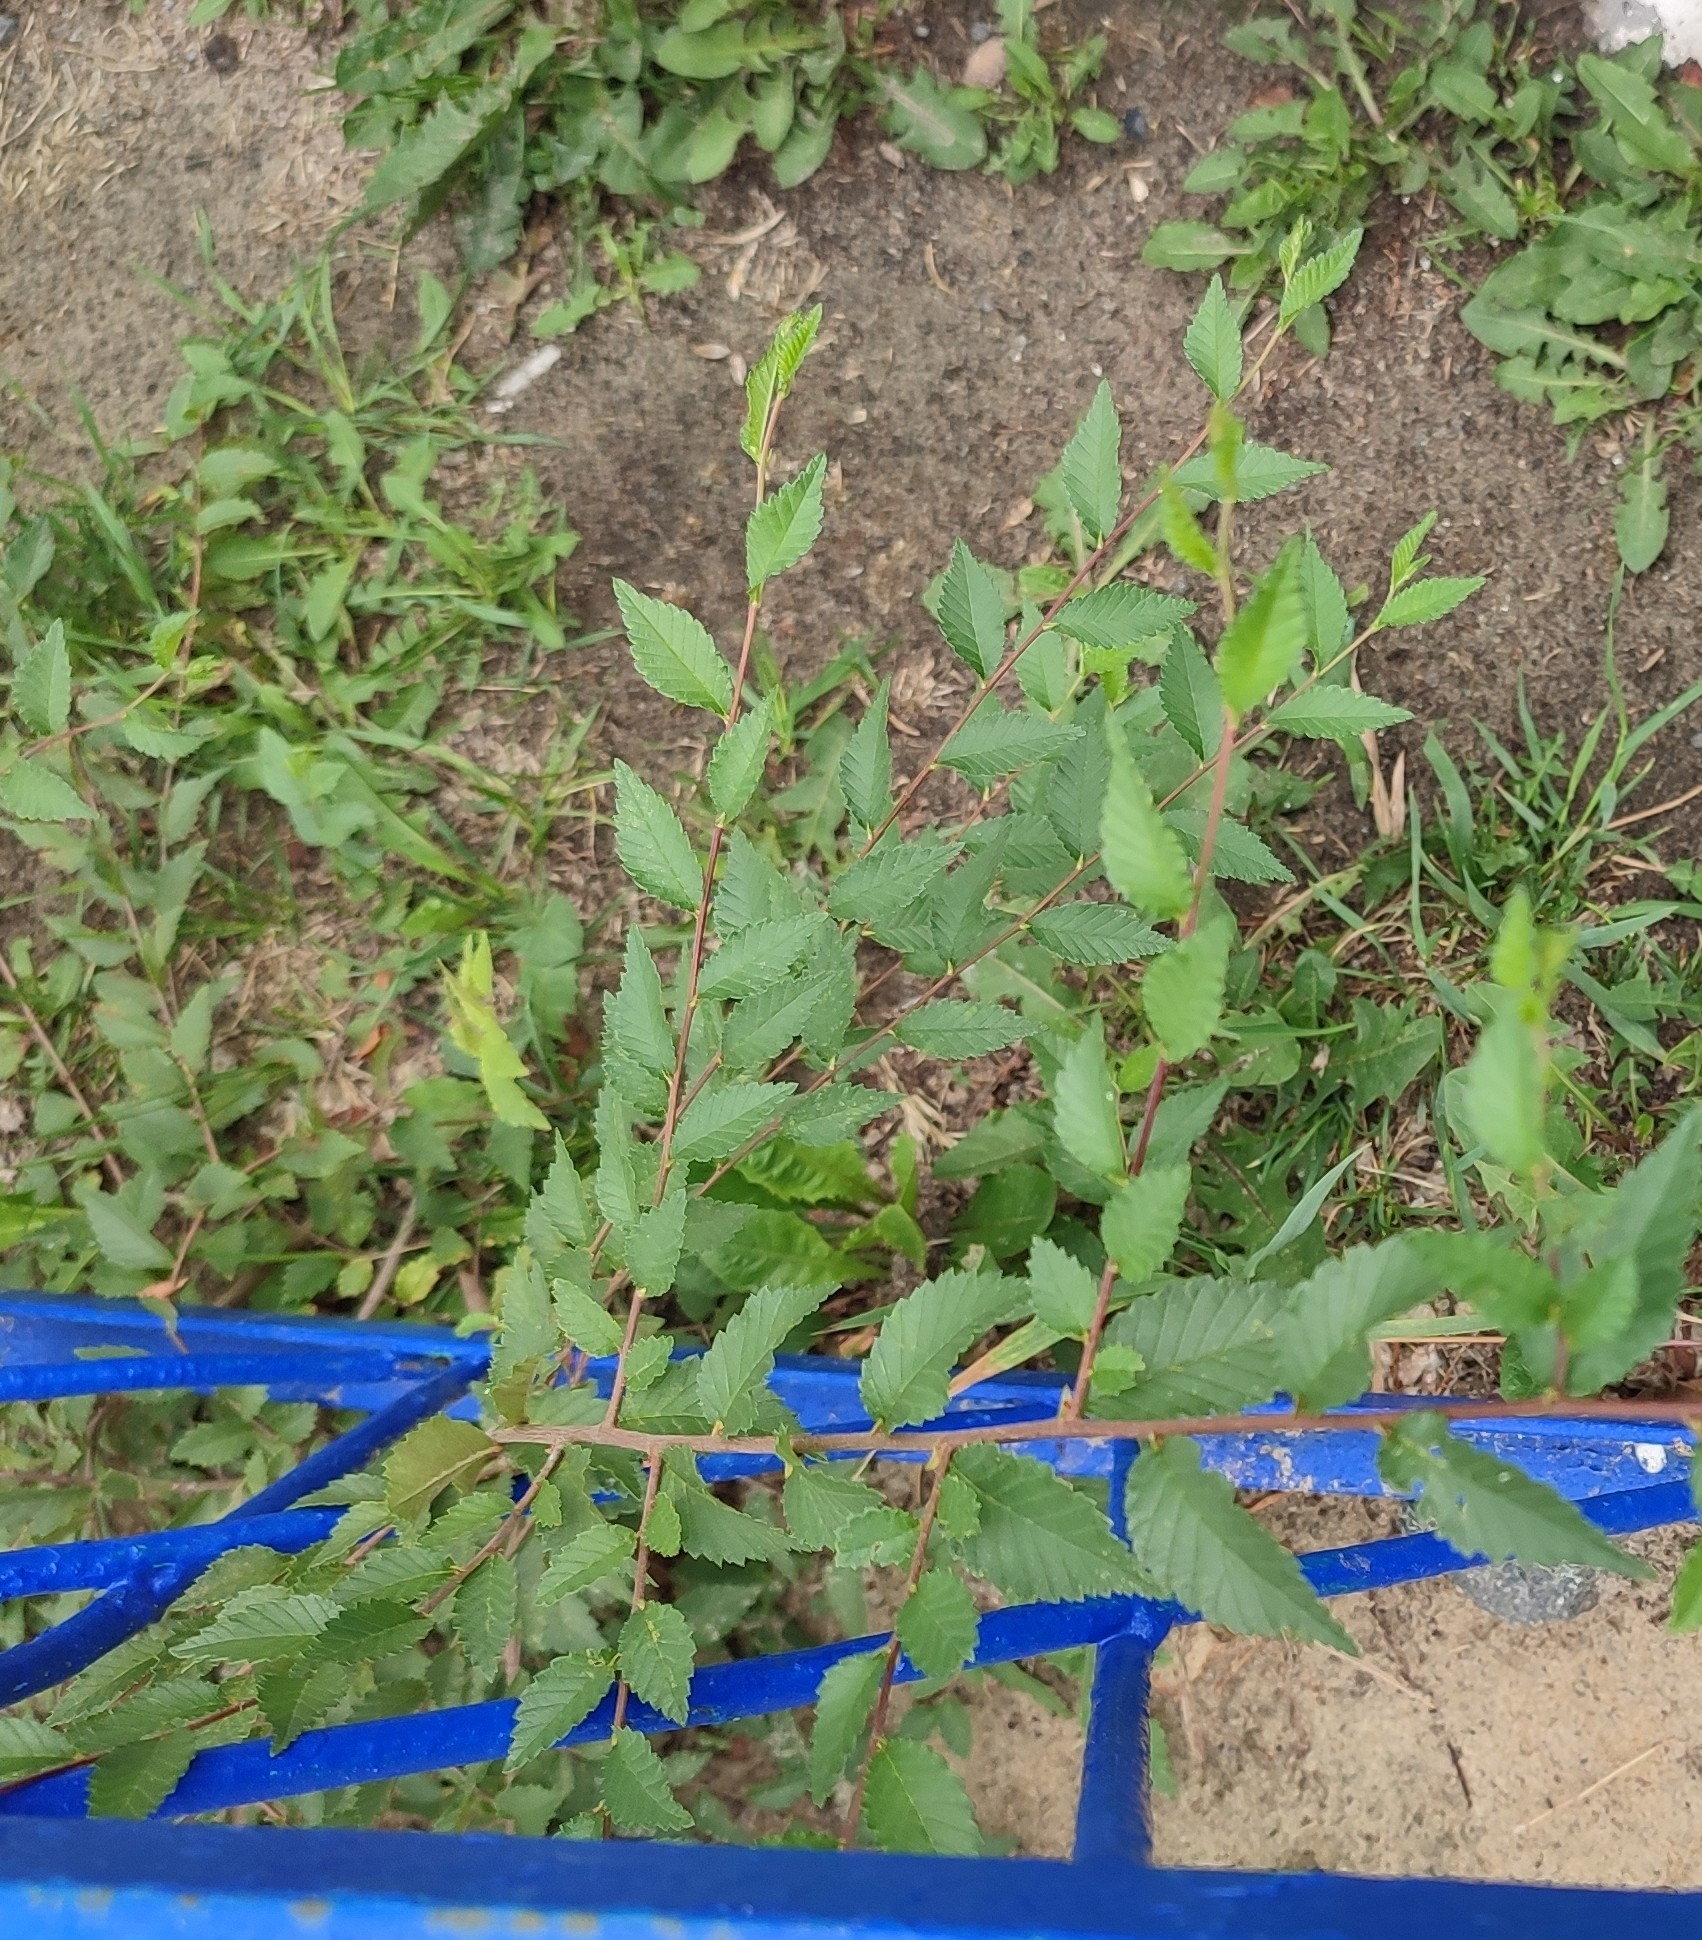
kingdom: Plantae
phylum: Tracheophyta
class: Magnoliopsida
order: Rosales
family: Ulmaceae
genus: Ulmus
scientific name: Ulmus pumila
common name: Siberian elm
